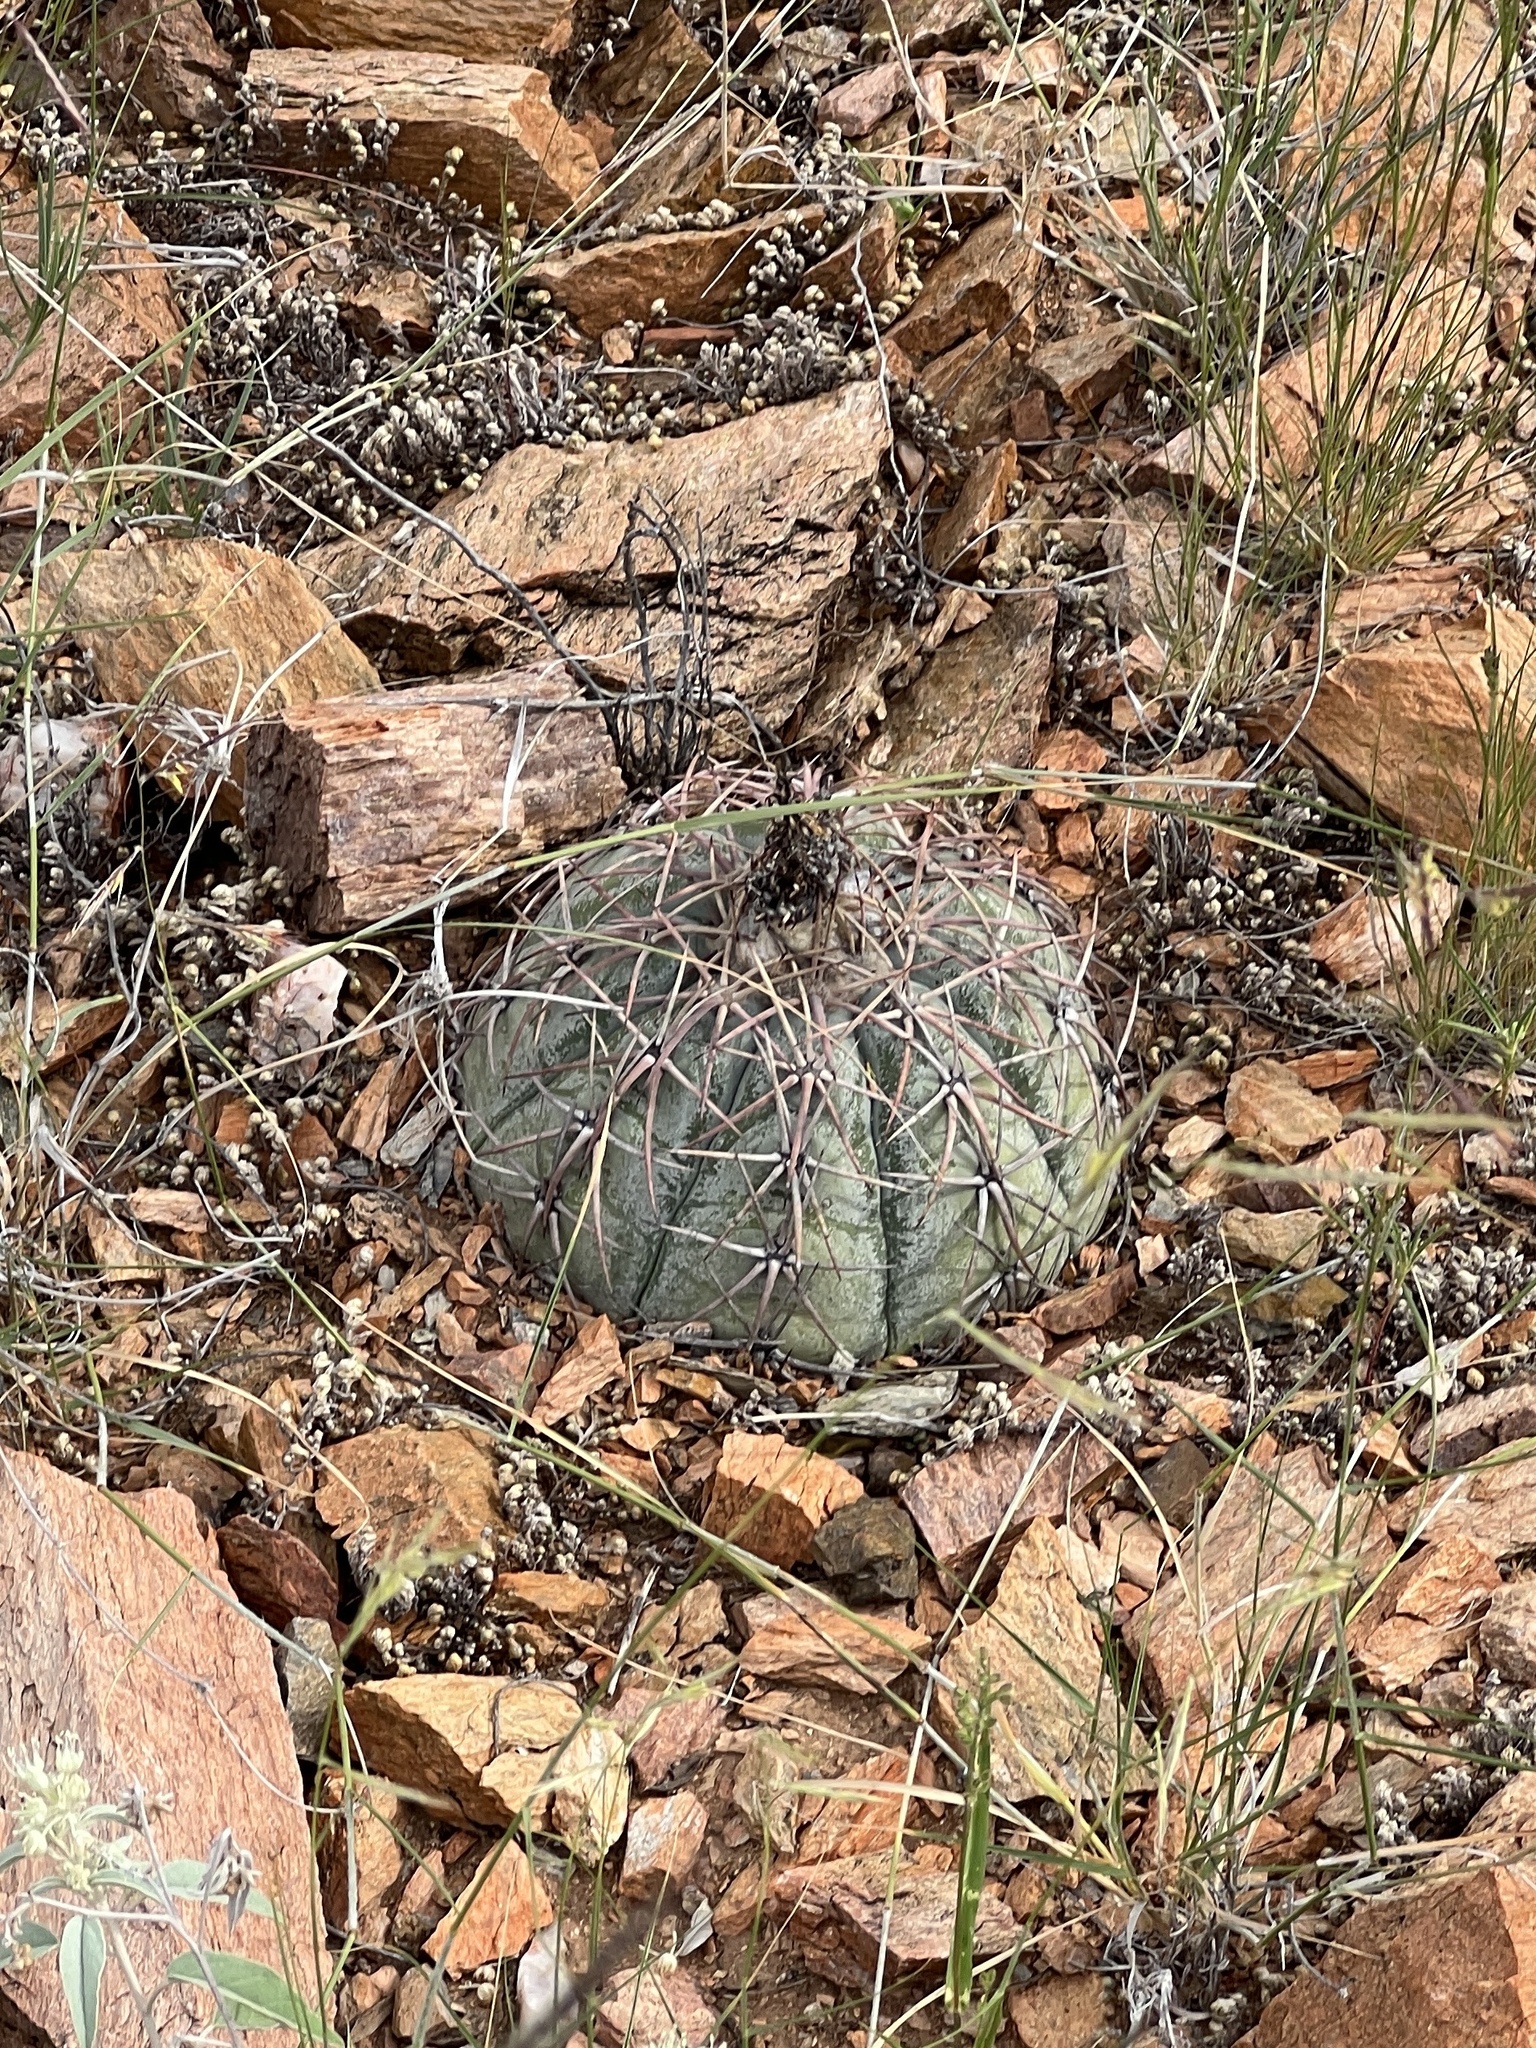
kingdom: Plantae
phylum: Tracheophyta
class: Magnoliopsida
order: Caryophyllales
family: Cactaceae
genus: Echinocactus
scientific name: Echinocactus horizonthalonius
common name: Devilshead
